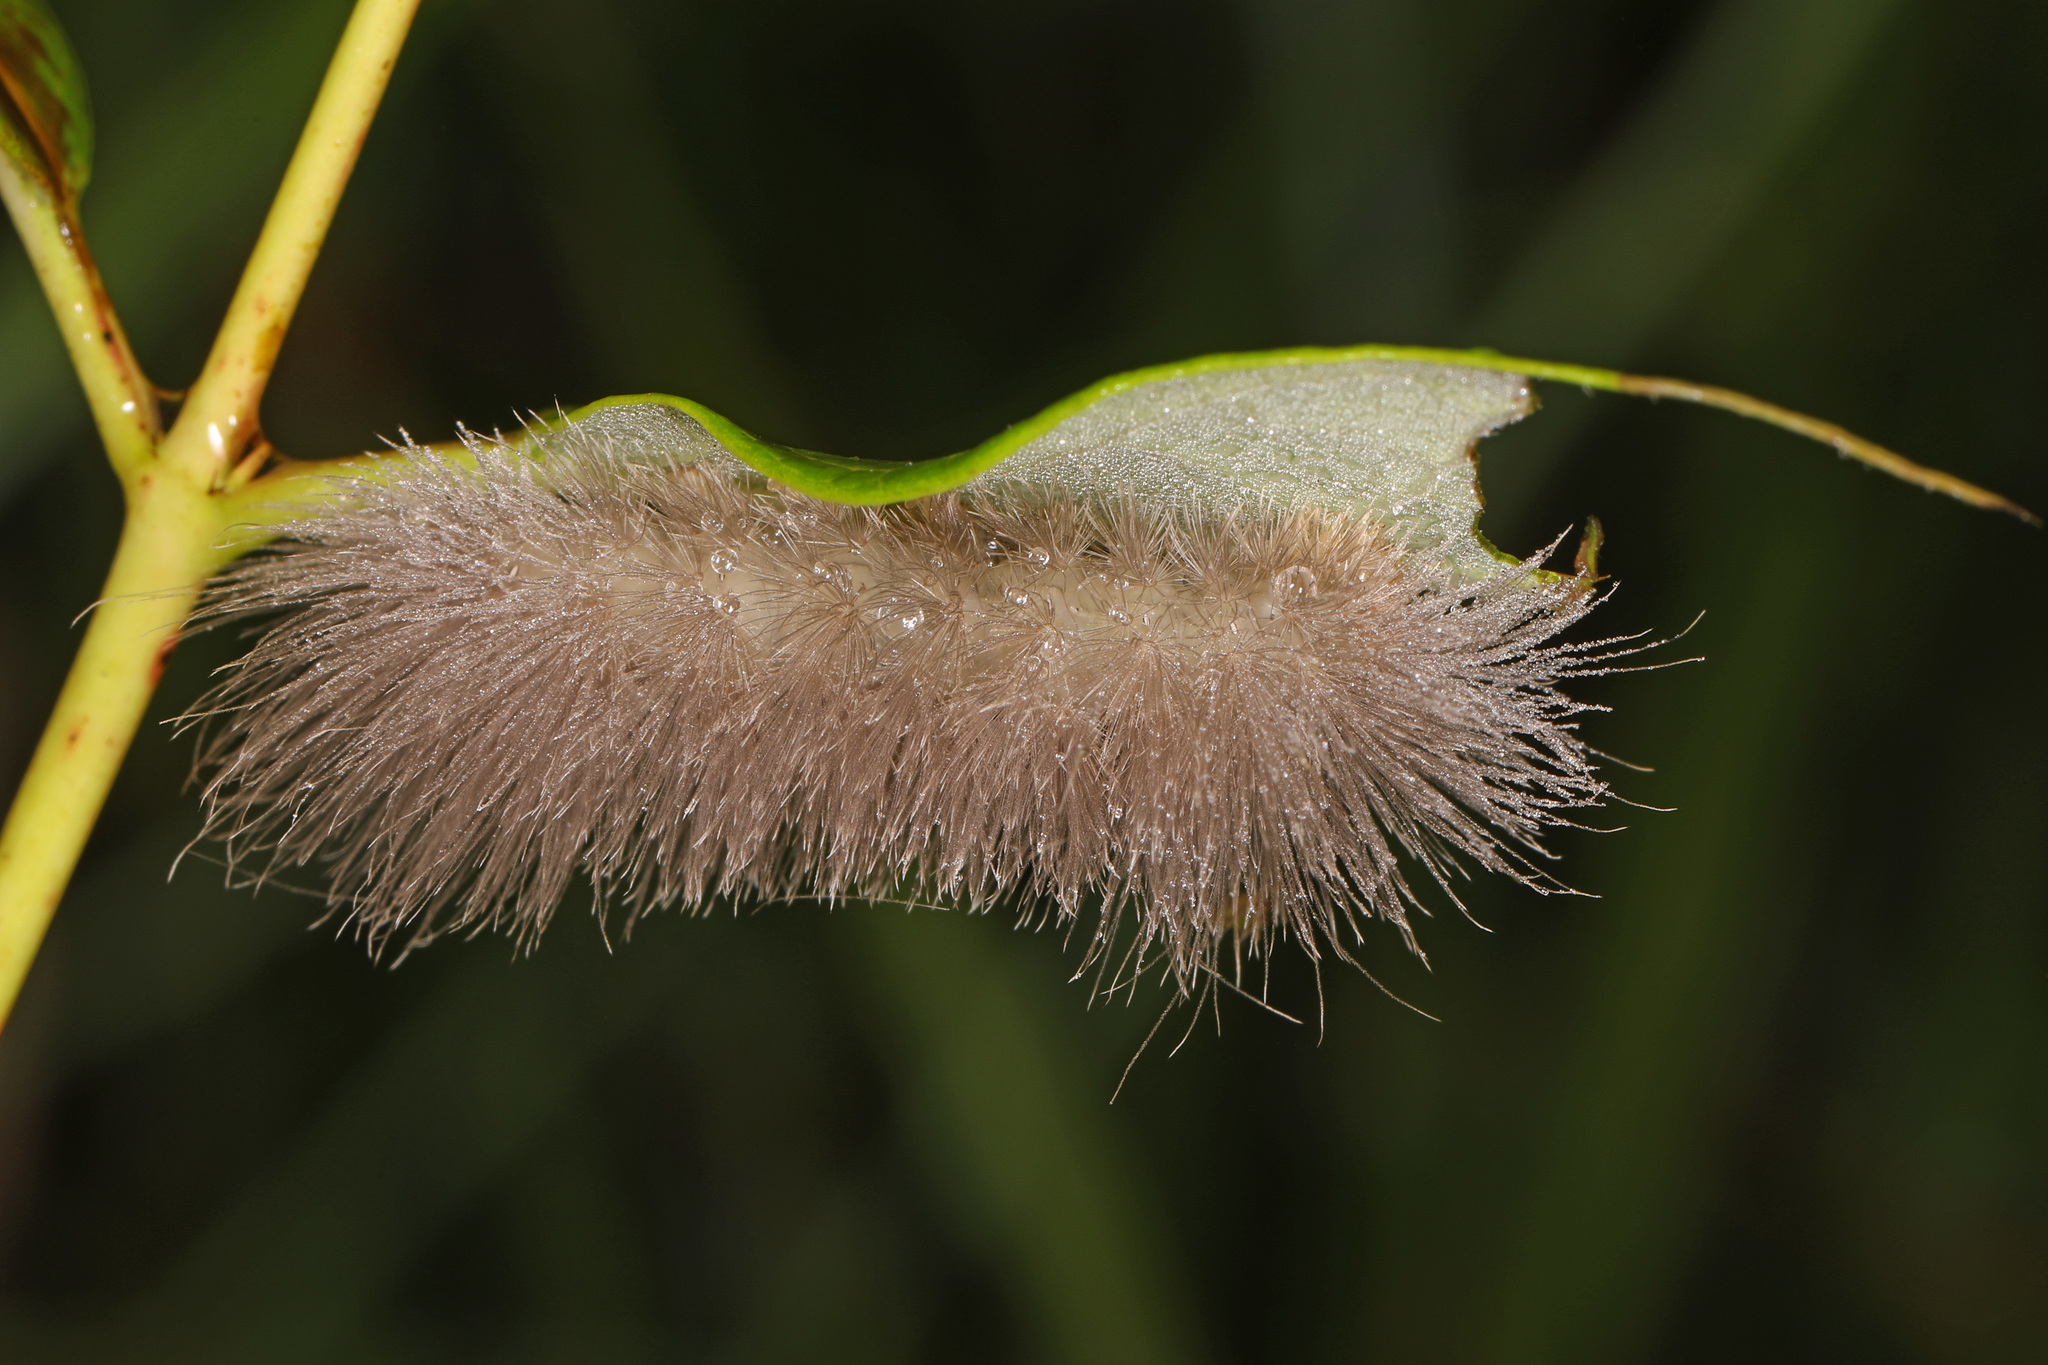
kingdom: Animalia
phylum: Arthropoda
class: Insecta
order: Lepidoptera
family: Erebidae
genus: Cycnia
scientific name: Cycnia tenera
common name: Delicate cycnia moth
